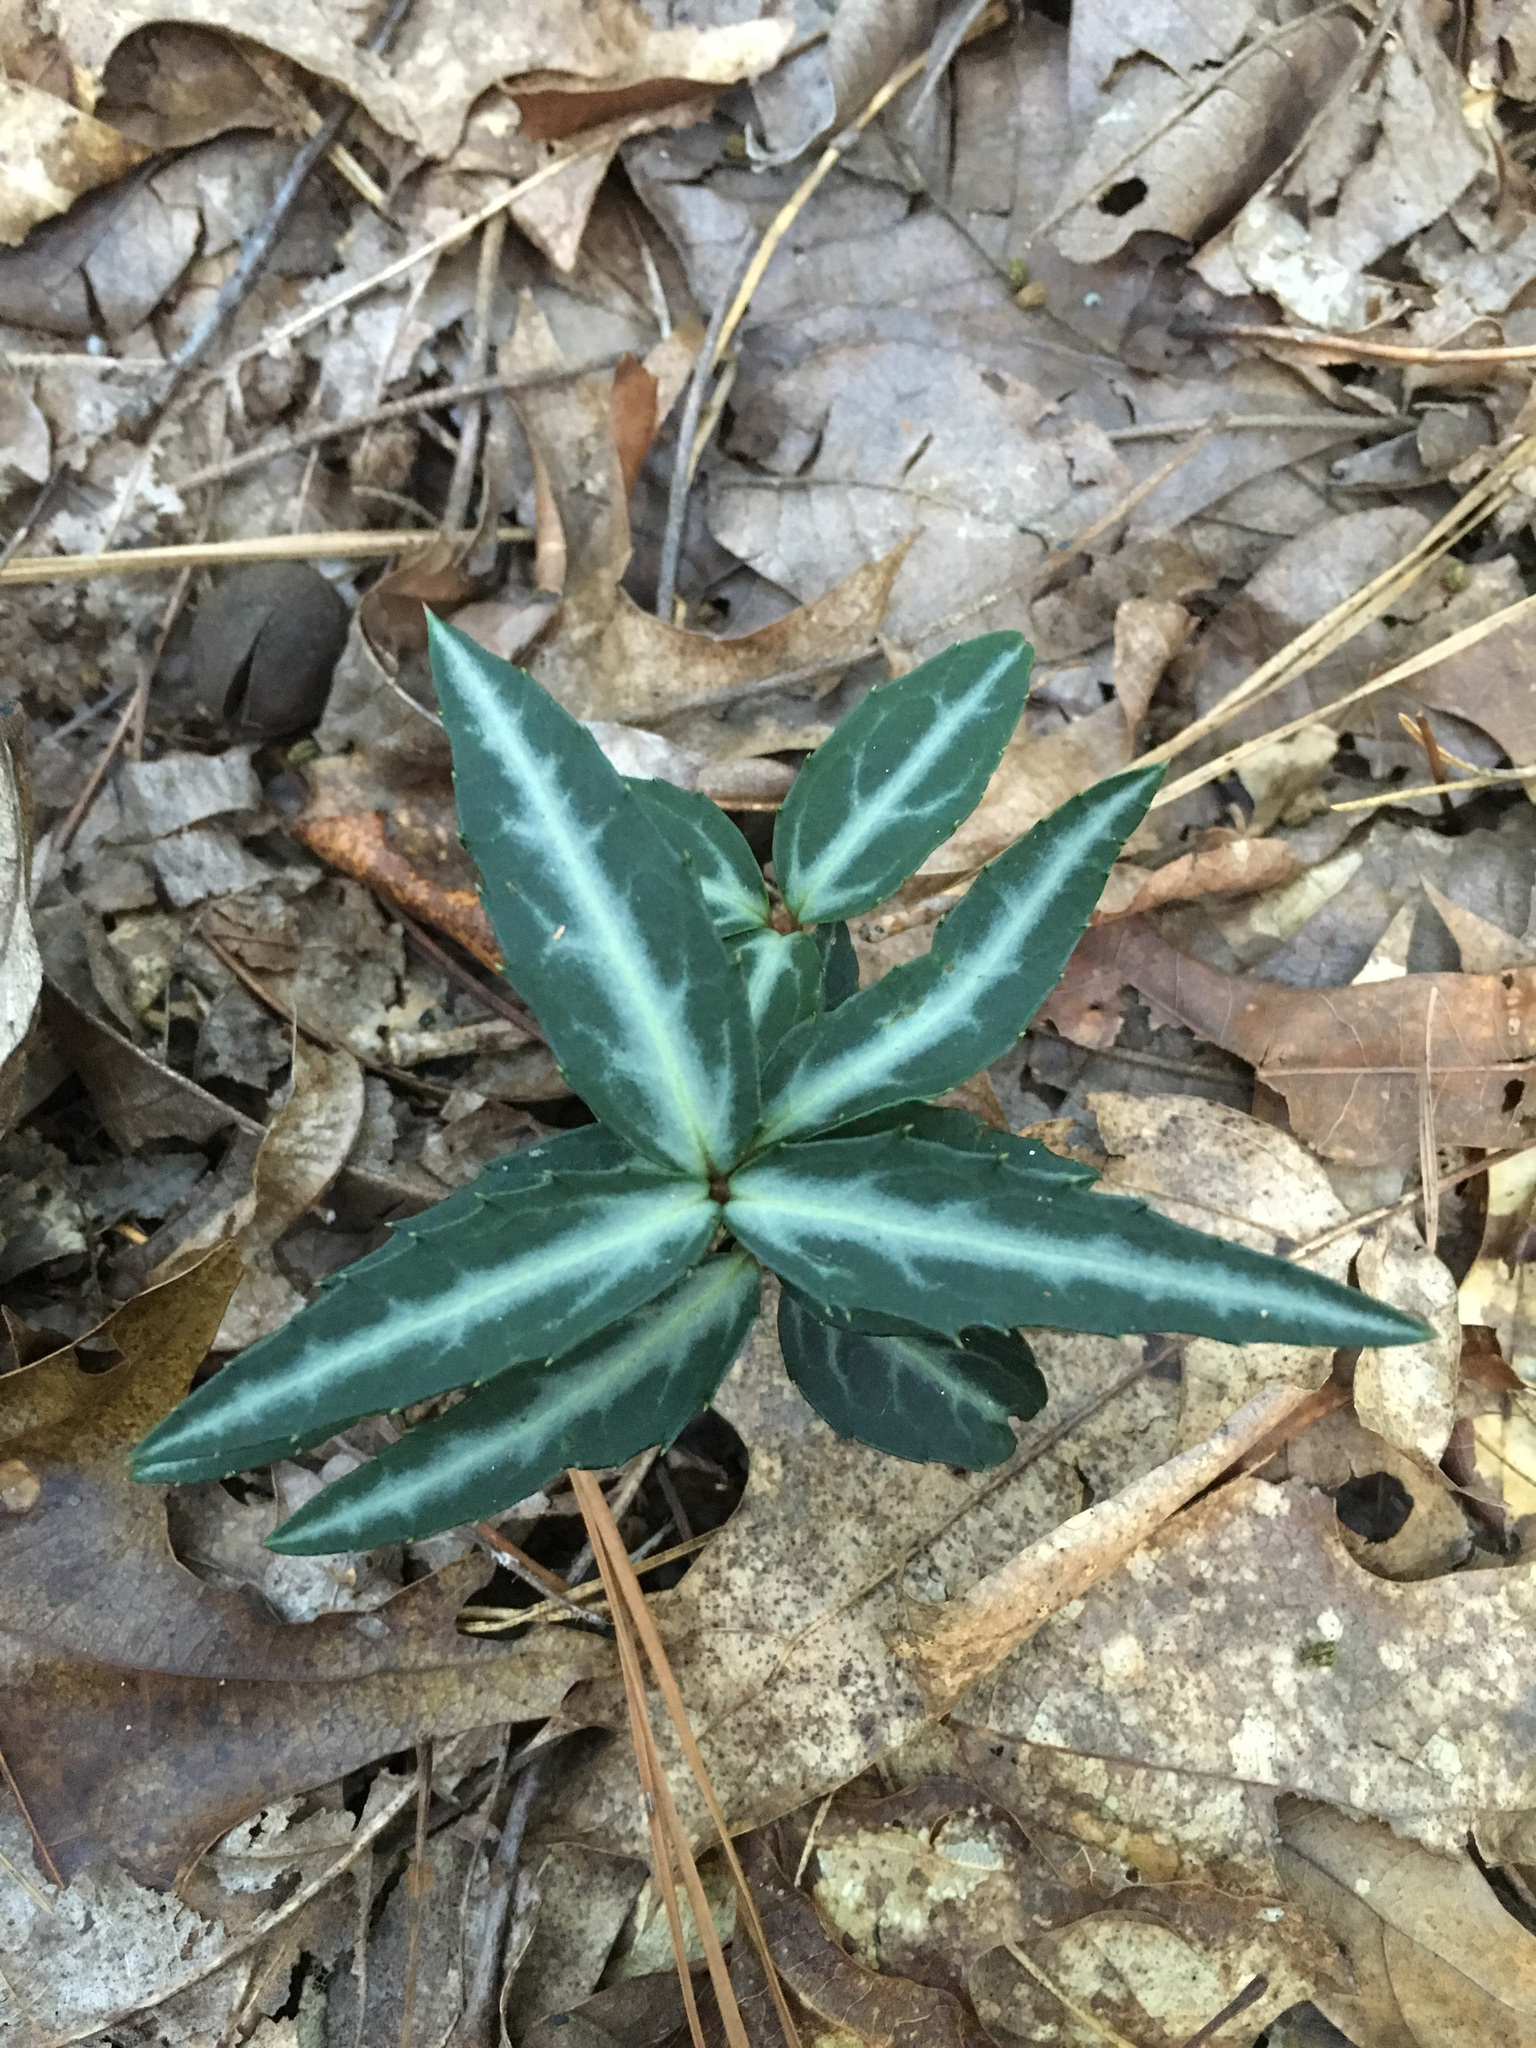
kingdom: Plantae
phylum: Tracheophyta
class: Magnoliopsida
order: Ericales
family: Ericaceae
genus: Chimaphila
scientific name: Chimaphila maculata
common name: Spotted pipsissewa
